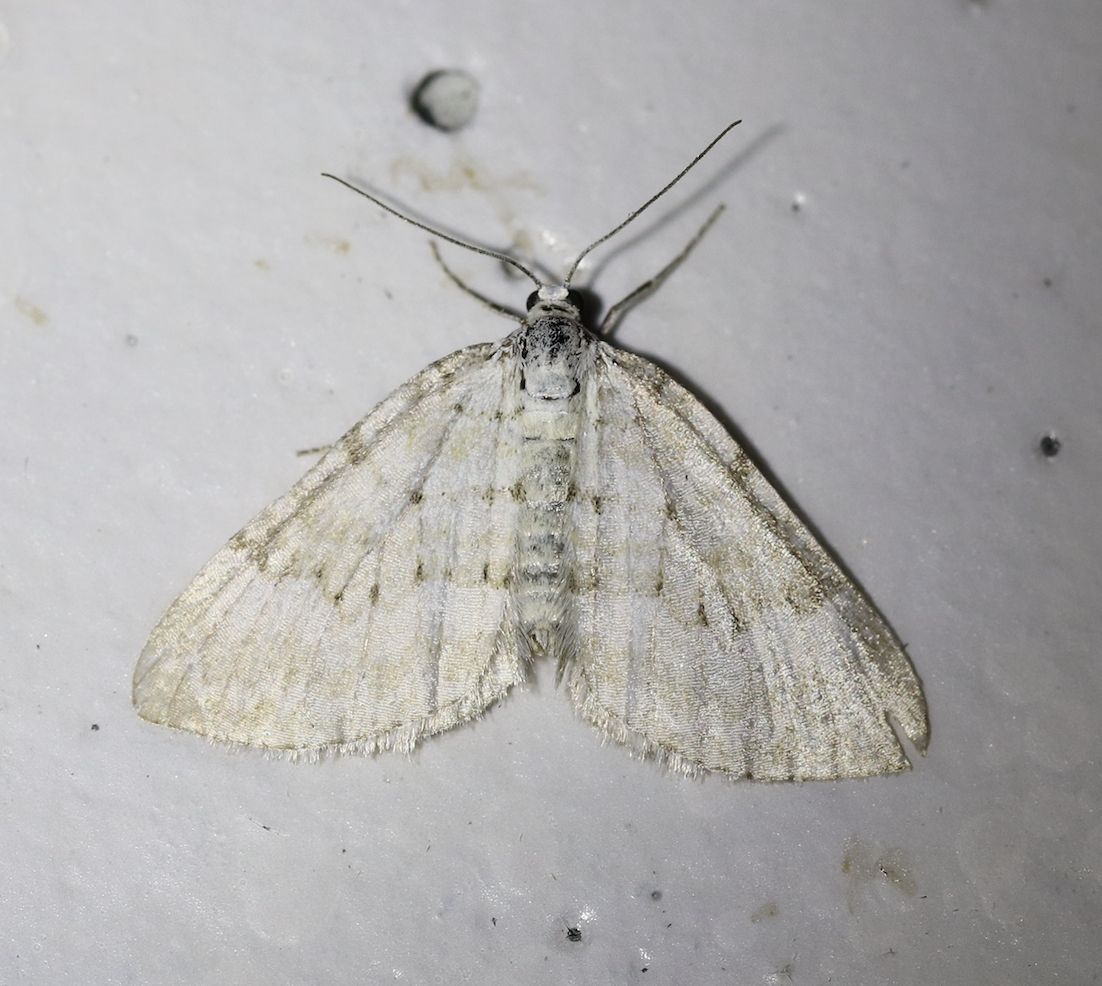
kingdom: Animalia
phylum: Arthropoda
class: Insecta
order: Lepidoptera
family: Geometridae
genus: Perizoma
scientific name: Perizoma albulata
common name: Grass rivulet
